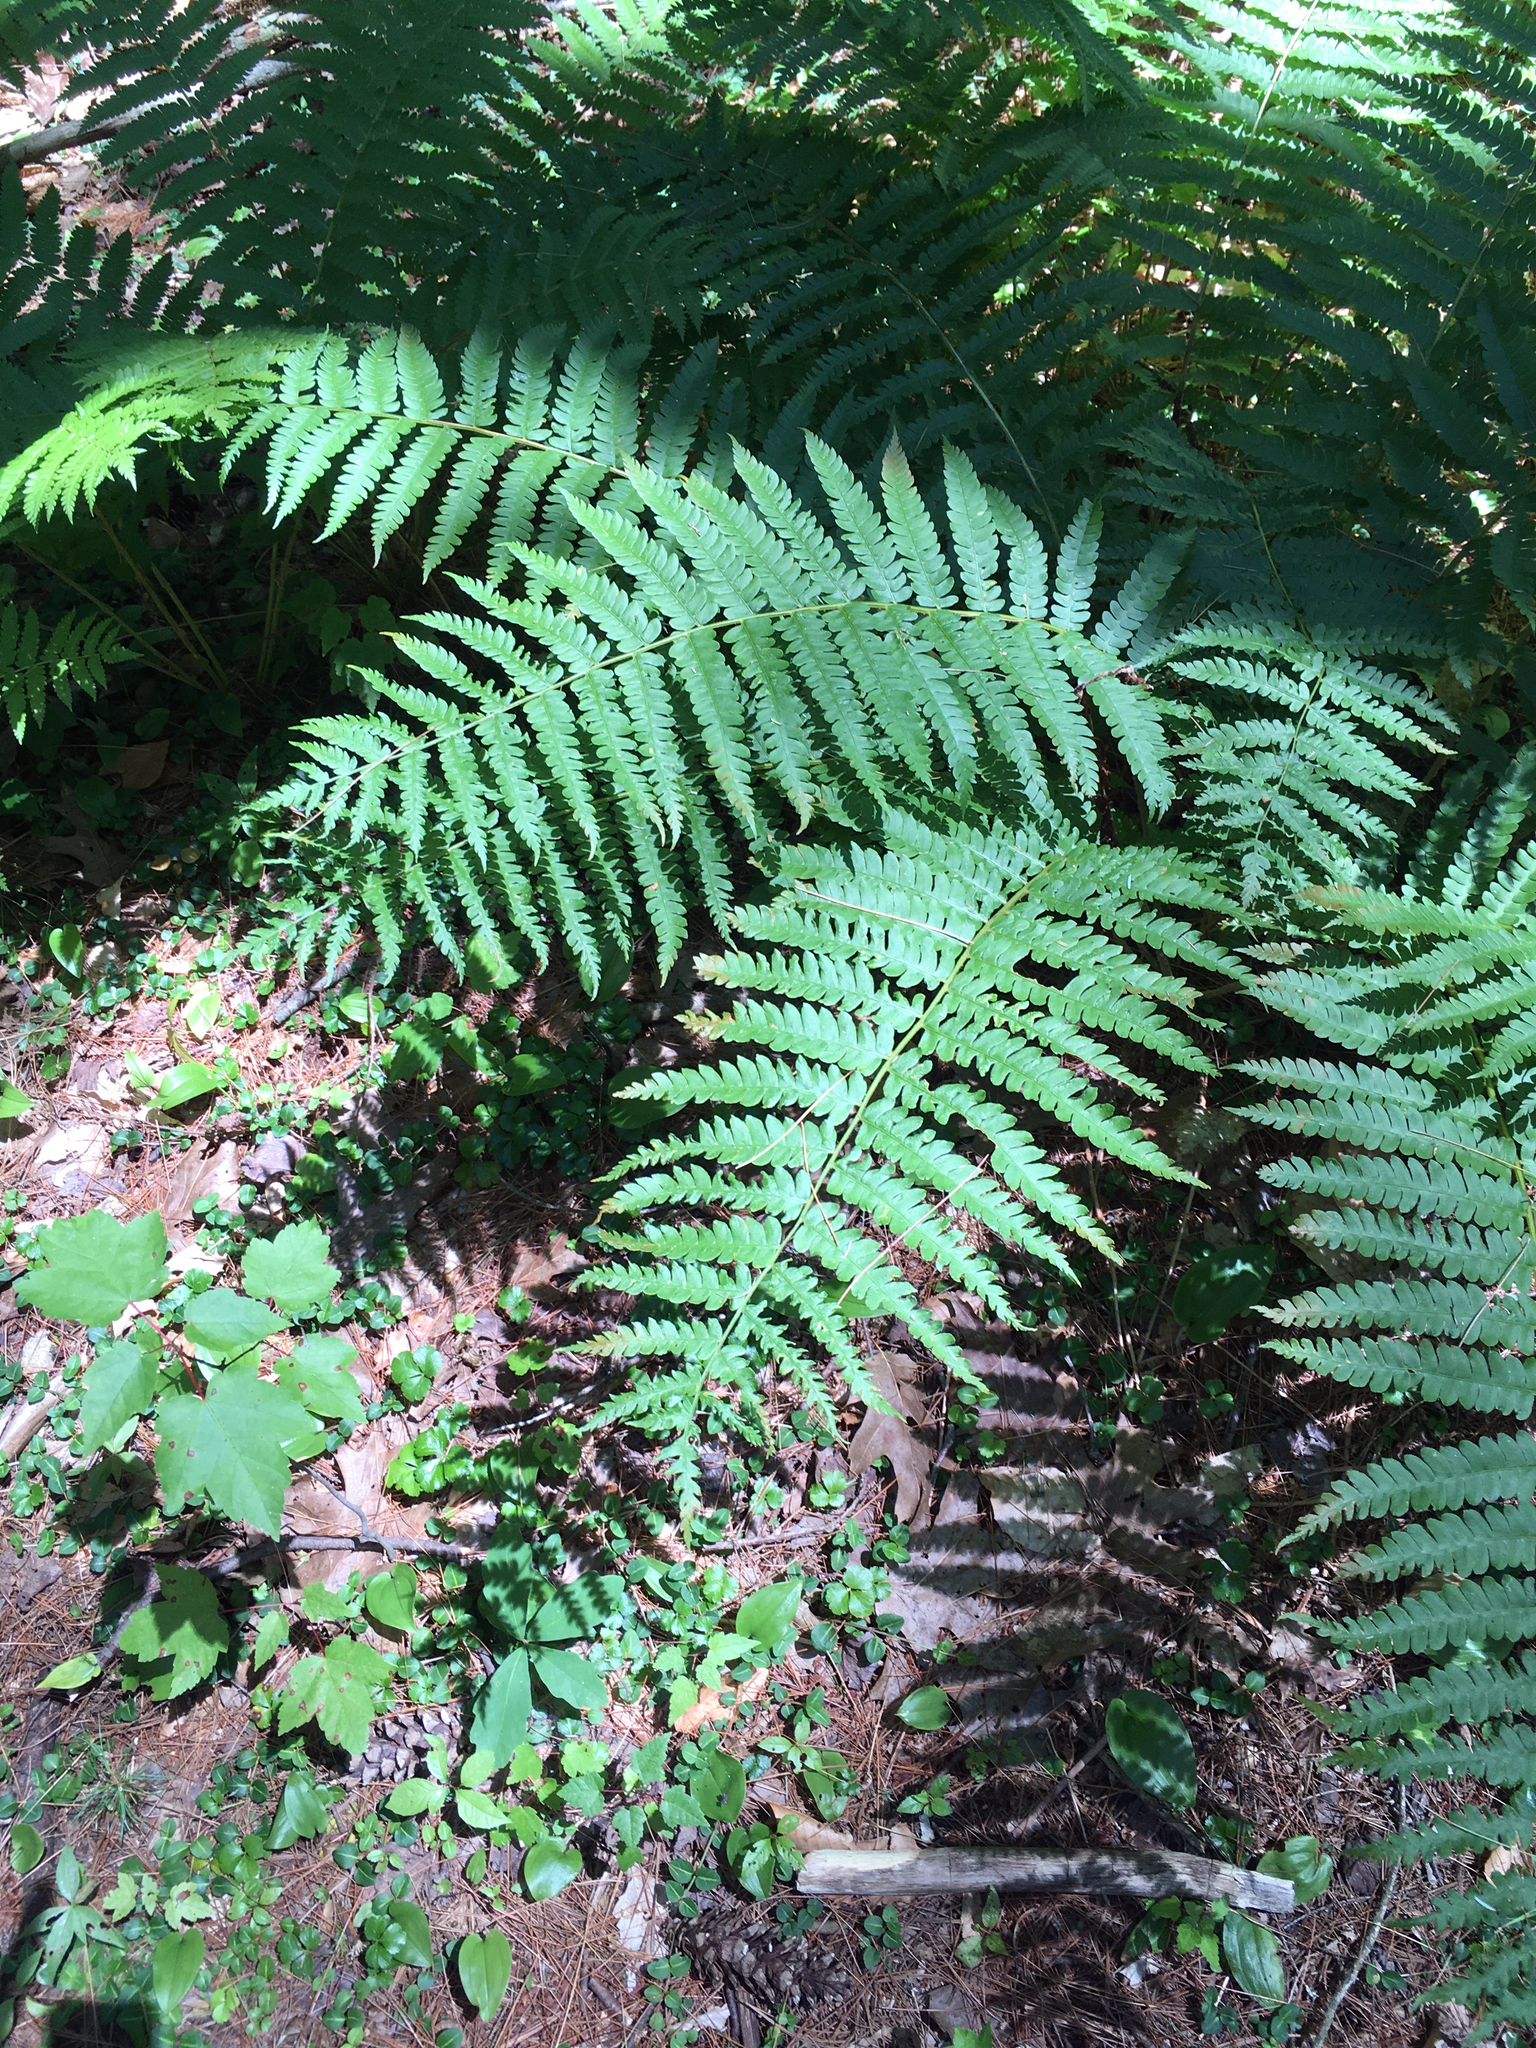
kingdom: Plantae
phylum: Tracheophyta
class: Polypodiopsida
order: Osmundales
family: Osmundaceae
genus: Osmundastrum
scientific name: Osmundastrum cinnamomeum
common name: Cinnamon fern
